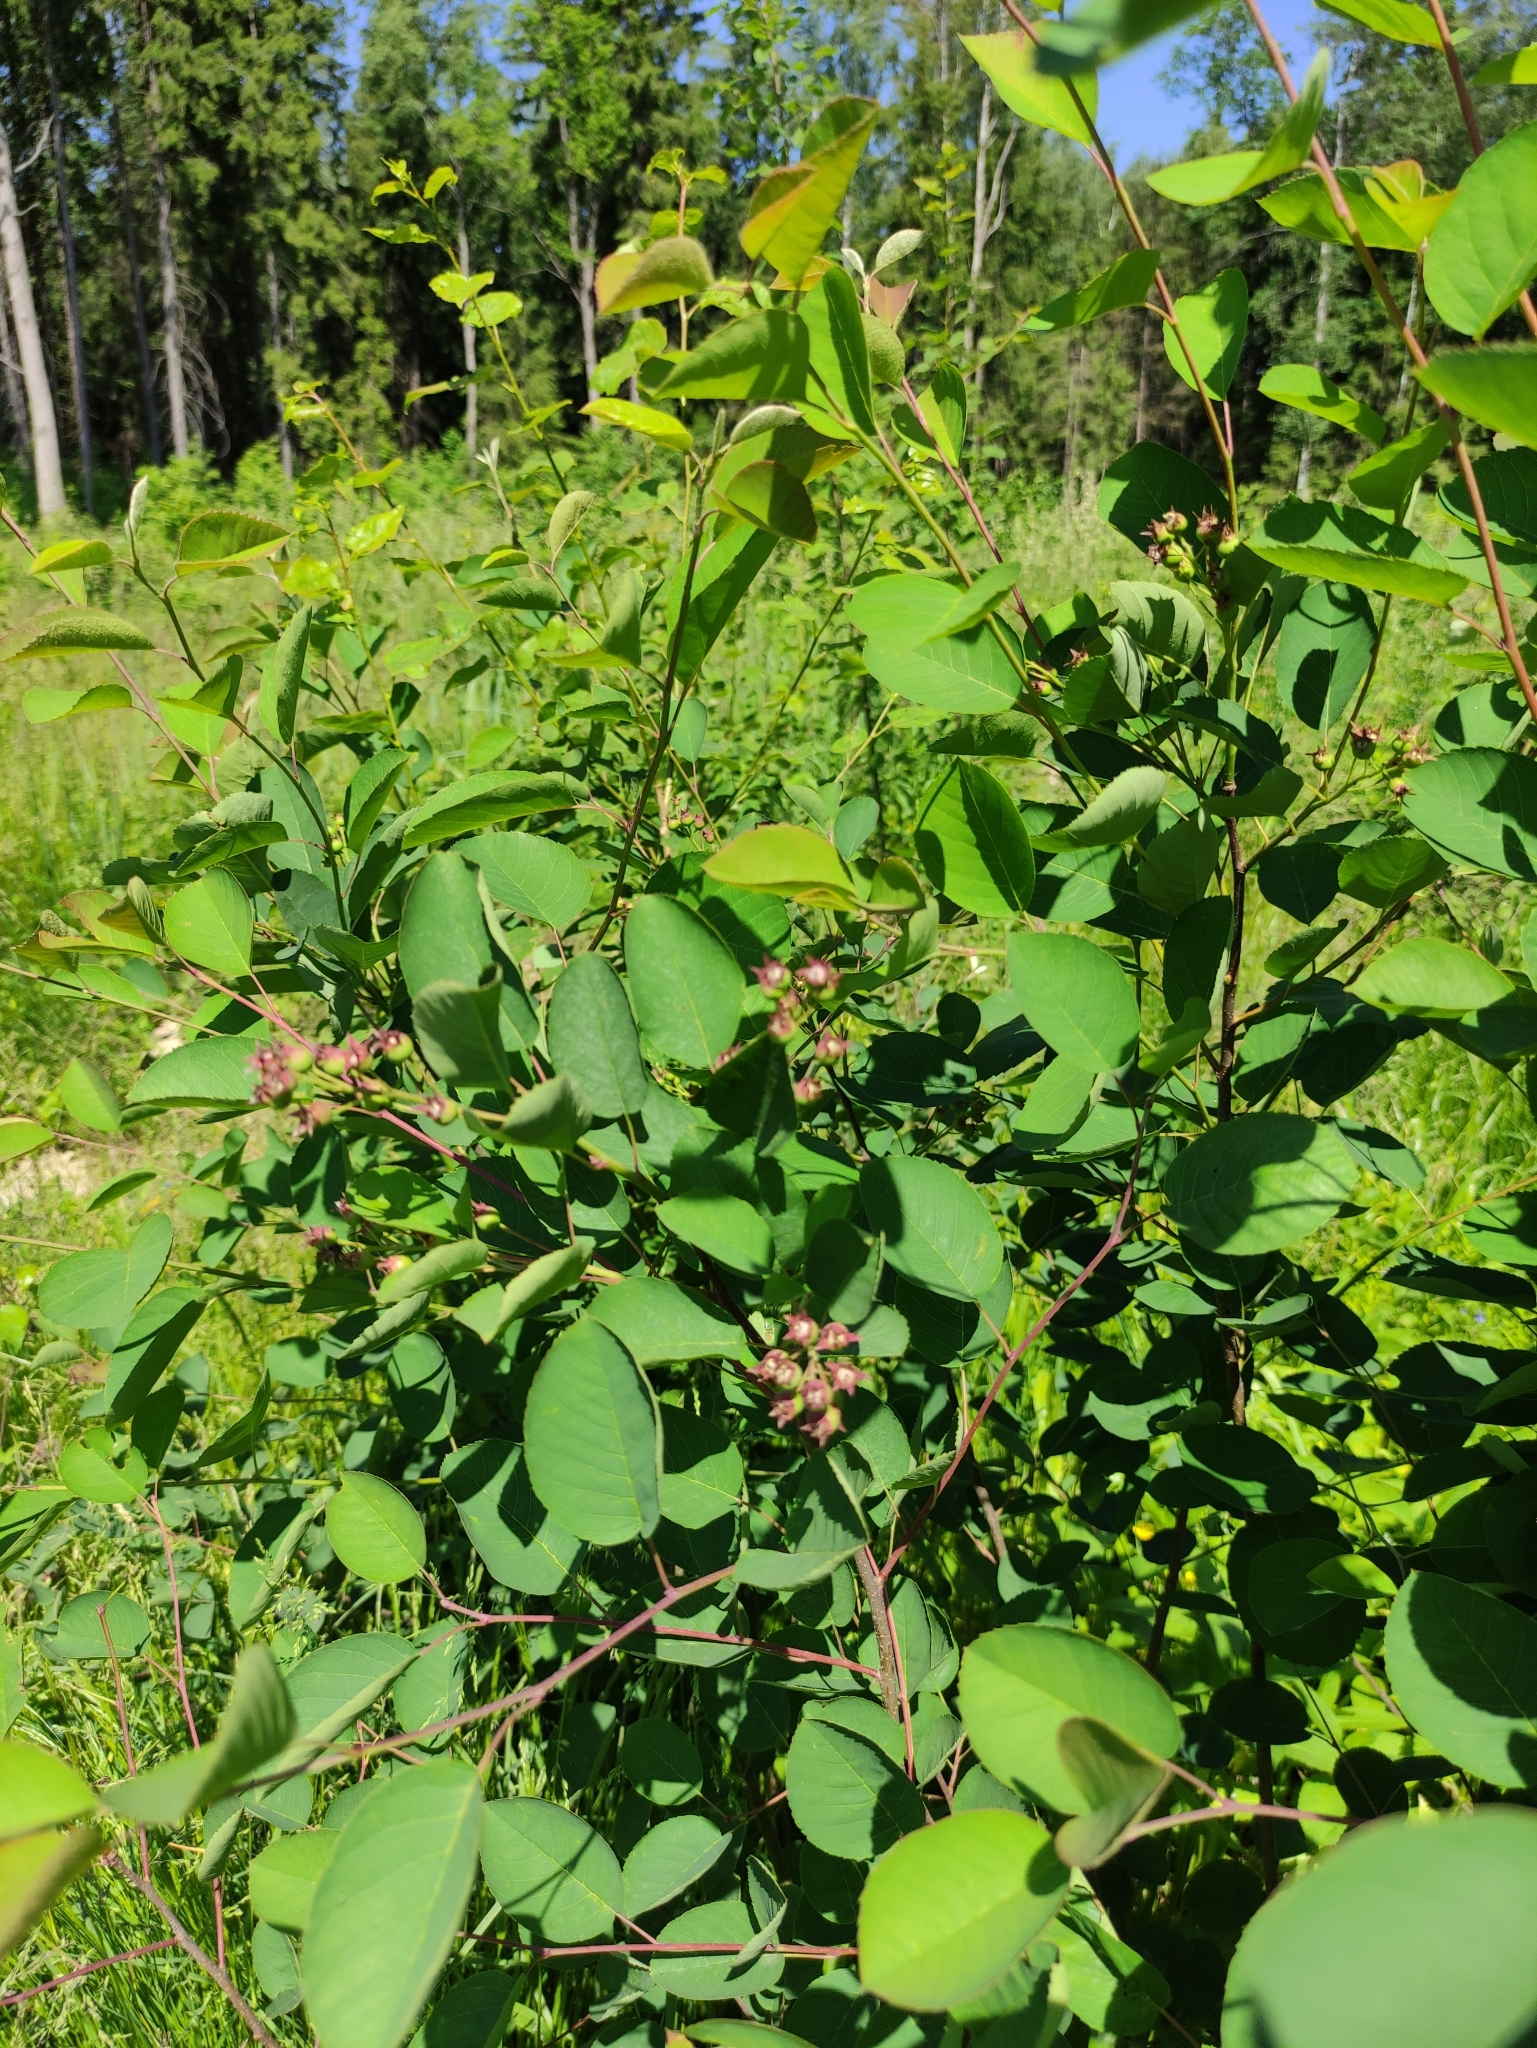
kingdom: Plantae
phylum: Tracheophyta
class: Magnoliopsida
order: Rosales
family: Rosaceae
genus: Amelanchier
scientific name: Amelanchier
